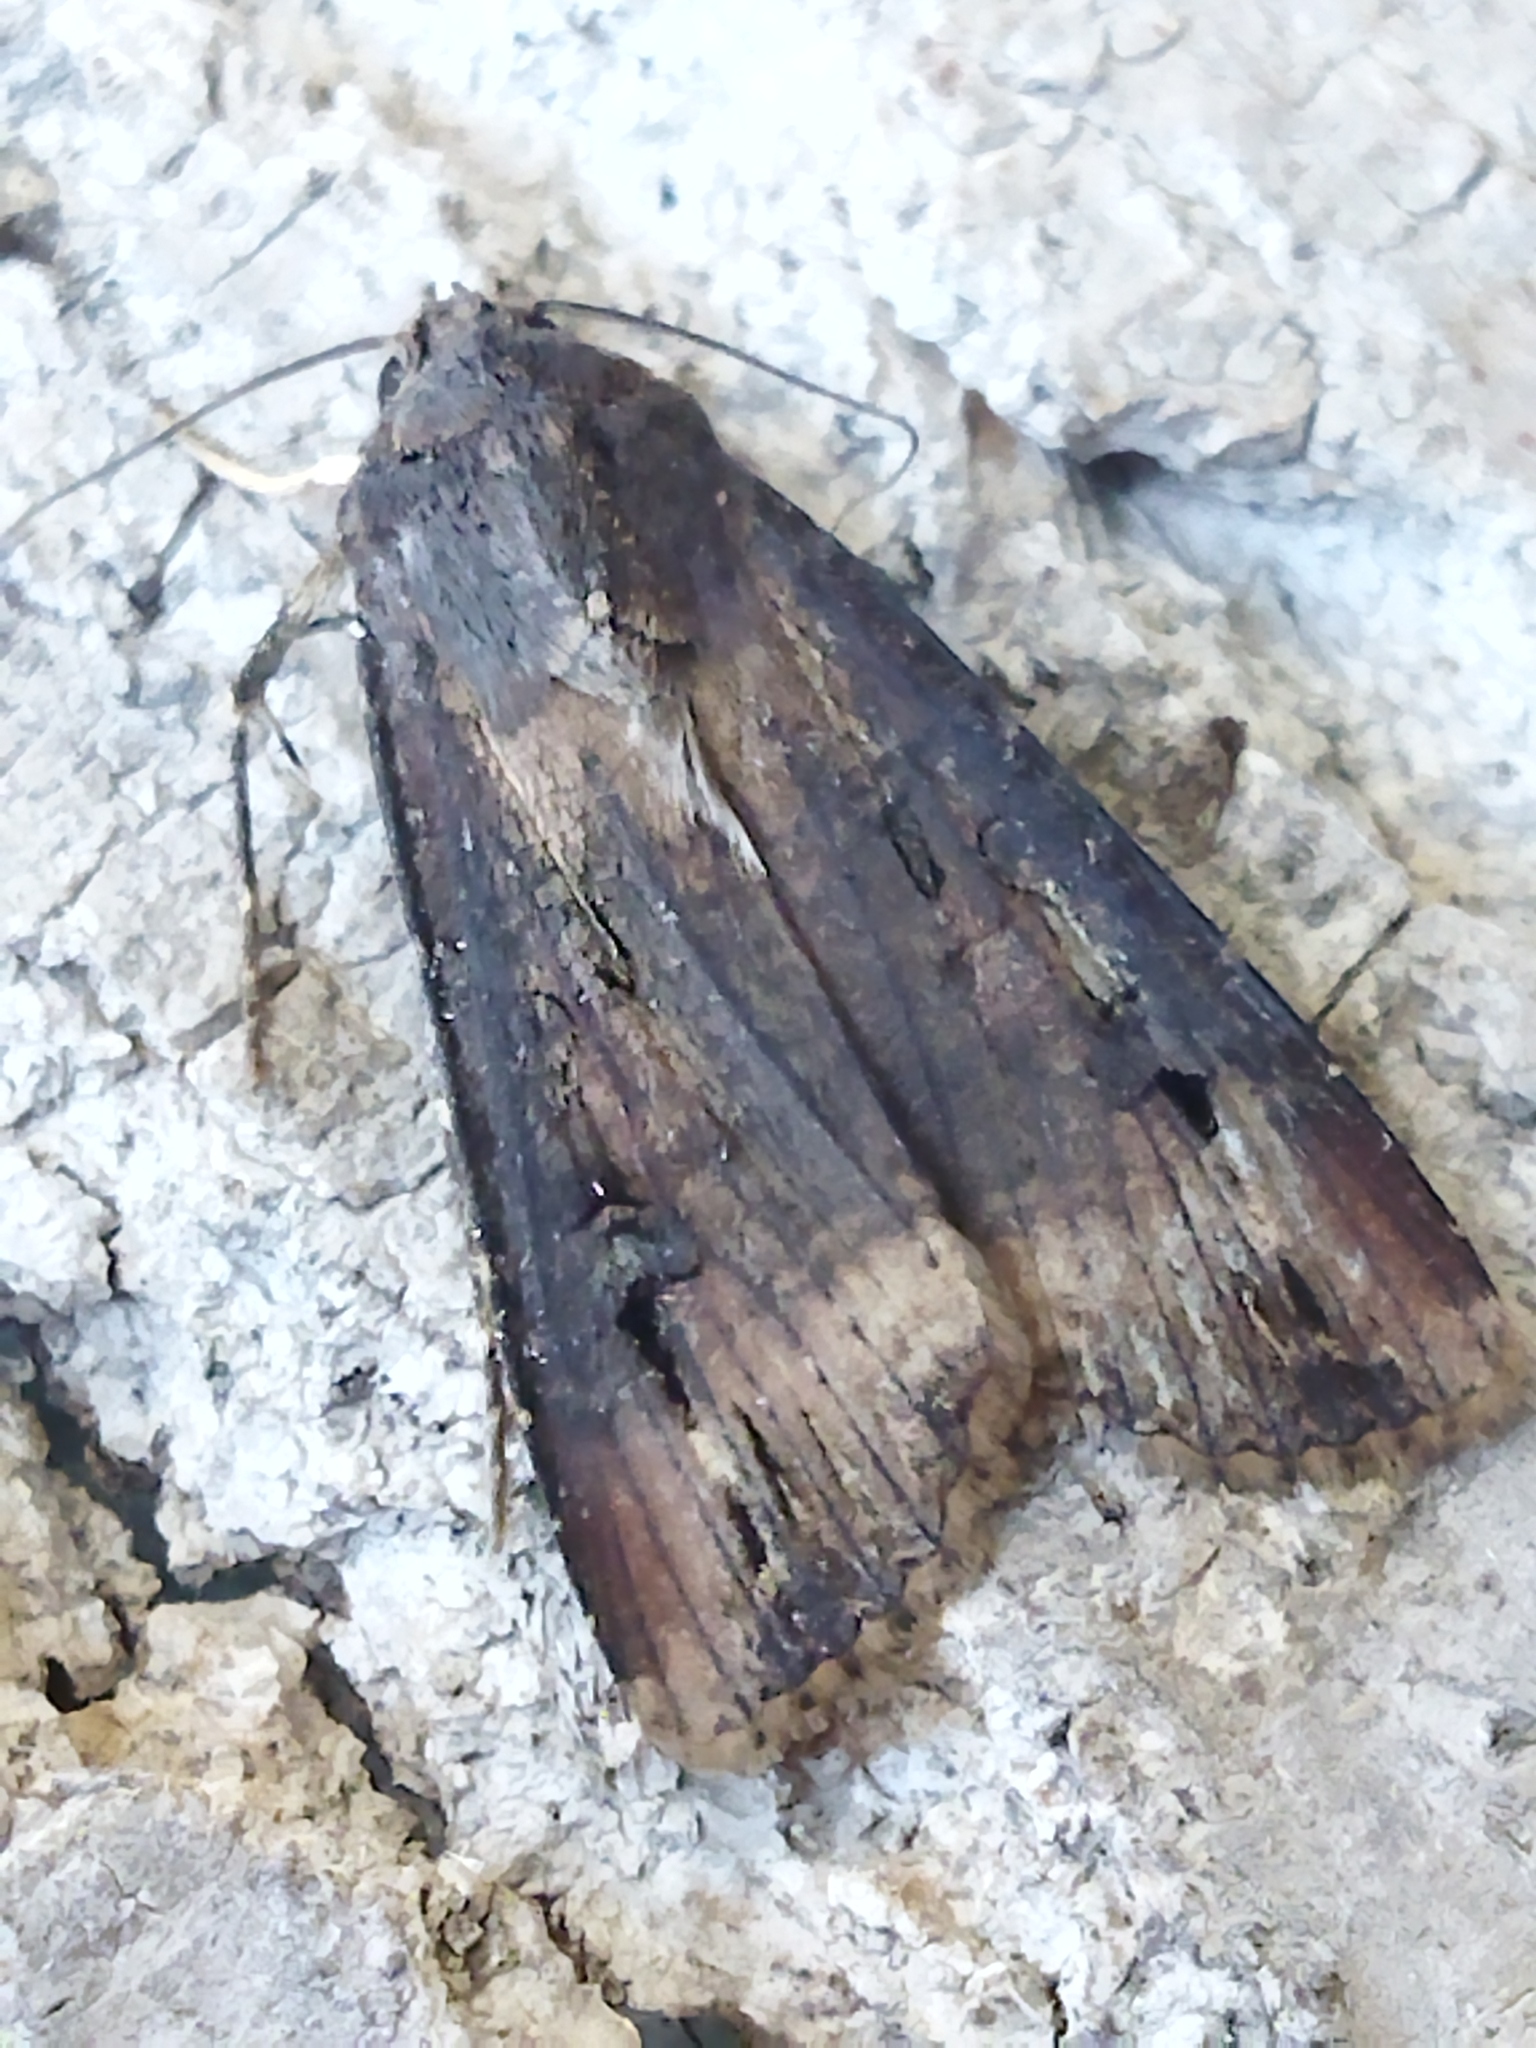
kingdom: Animalia
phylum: Arthropoda
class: Insecta
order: Lepidoptera
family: Noctuidae
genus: Agrotis
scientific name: Agrotis ipsilon
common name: Dark sword-grass
